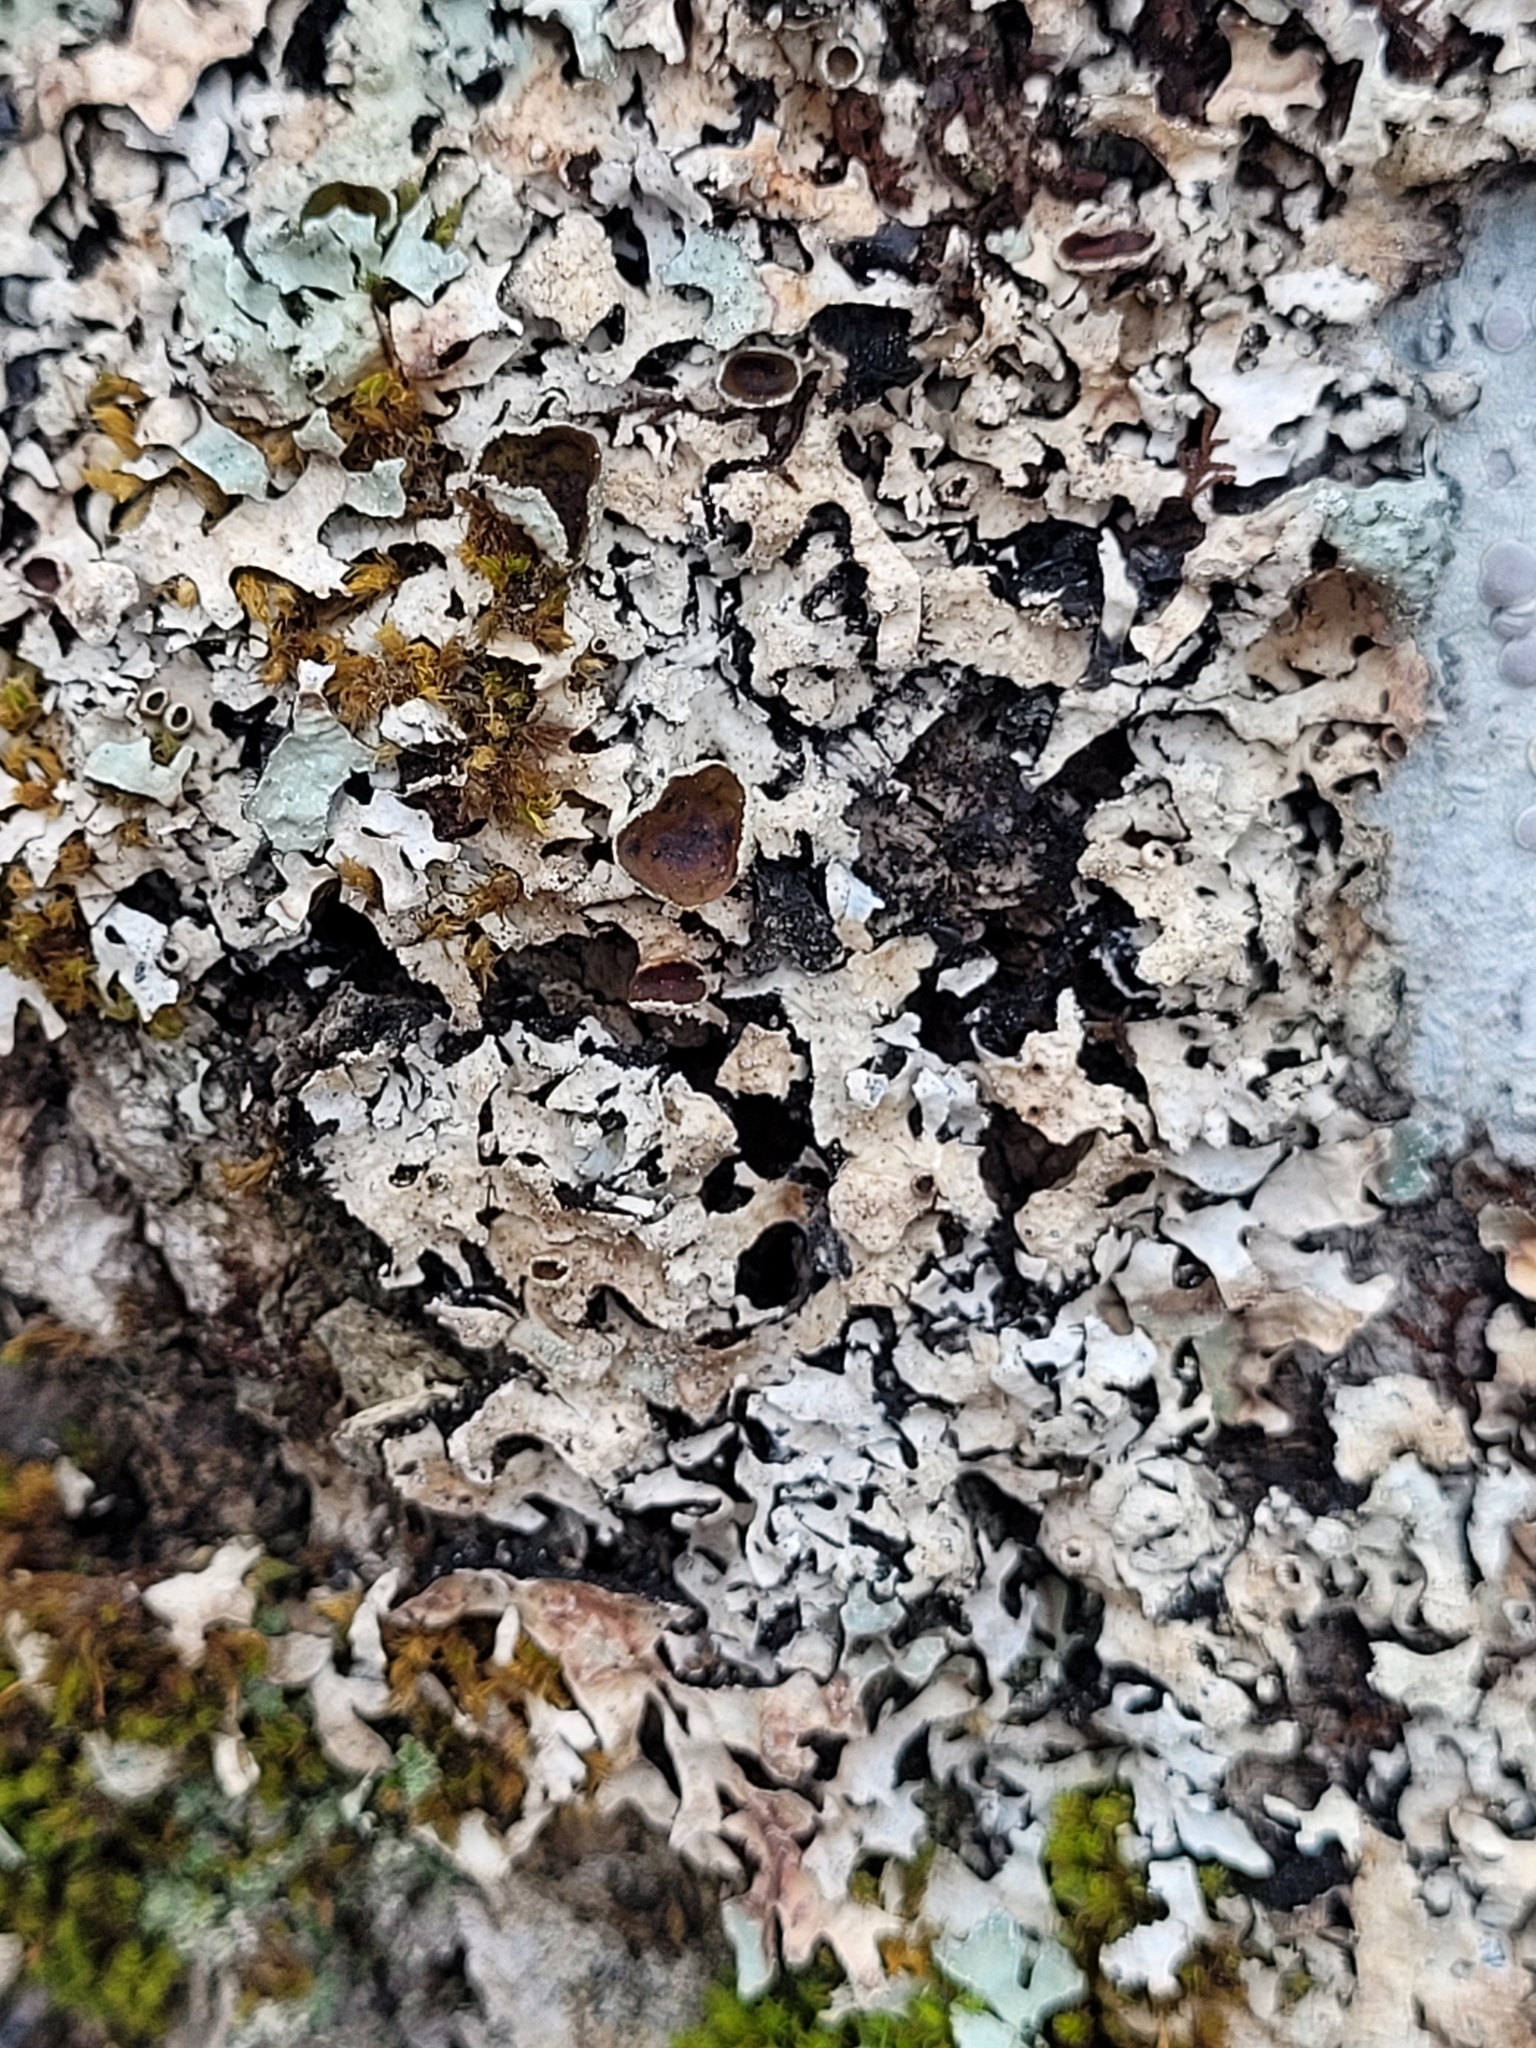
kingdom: Fungi
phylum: Ascomycota
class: Lecanoromycetes
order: Lecanorales
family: Parmeliaceae
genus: Parmelia
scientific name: Parmelia squarrosa
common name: Bottle brush shield lichen
